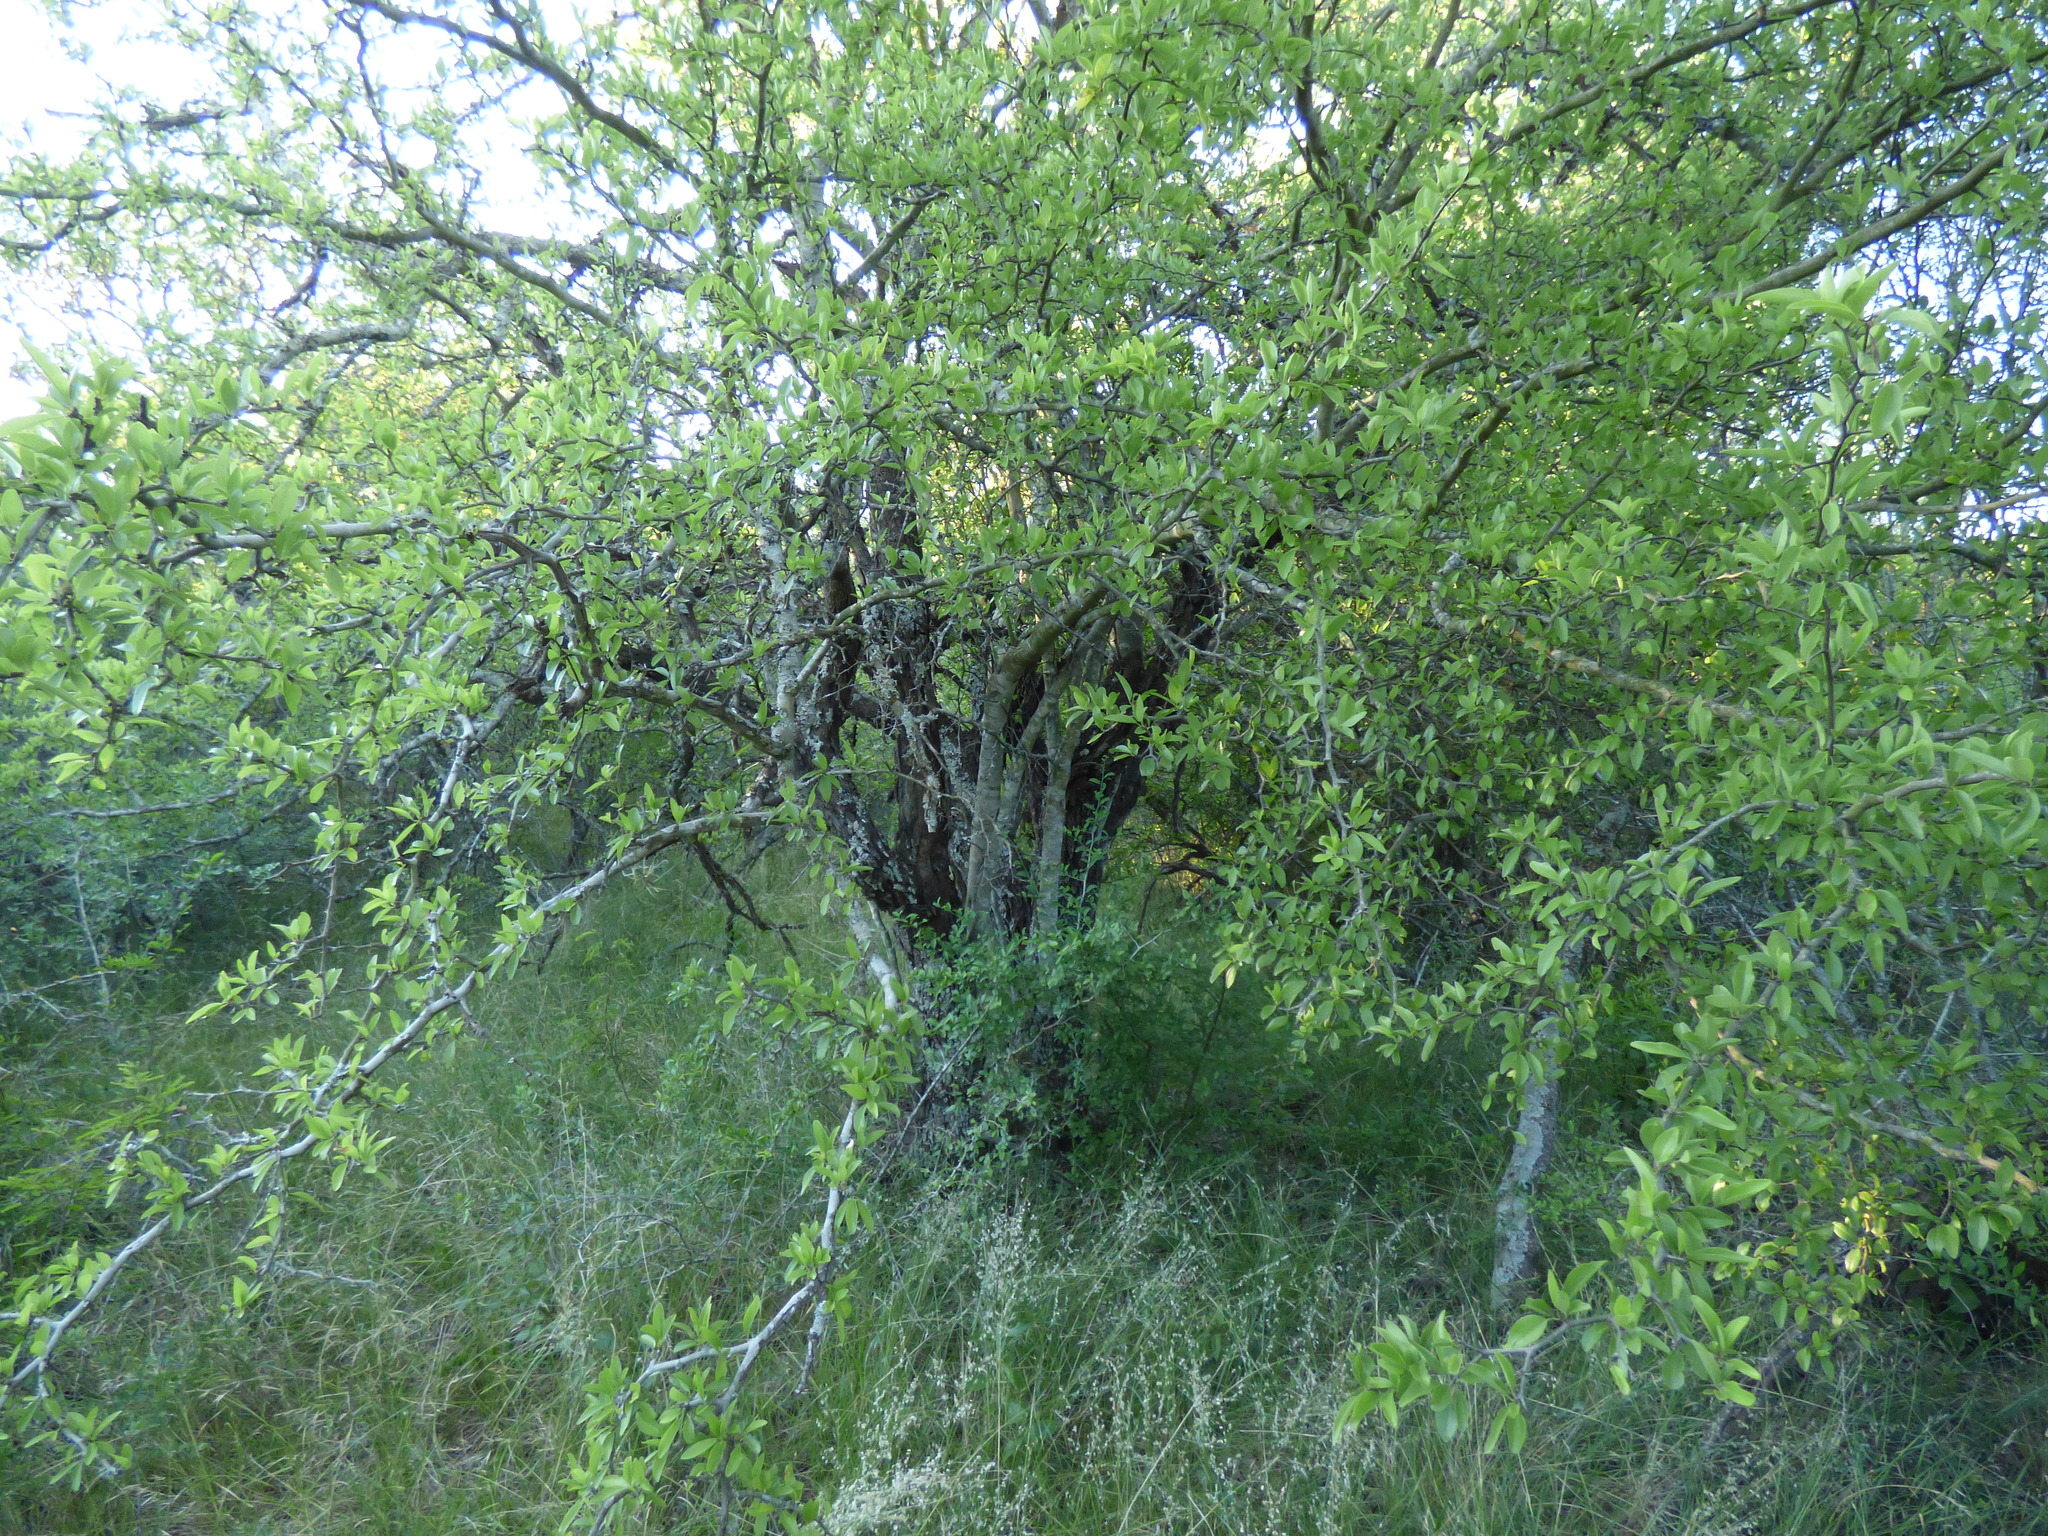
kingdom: Plantae
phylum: Tracheophyta
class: Magnoliopsida
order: Rosales
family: Rhamnaceae
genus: Sarcomphalus
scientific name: Sarcomphalus mistol
